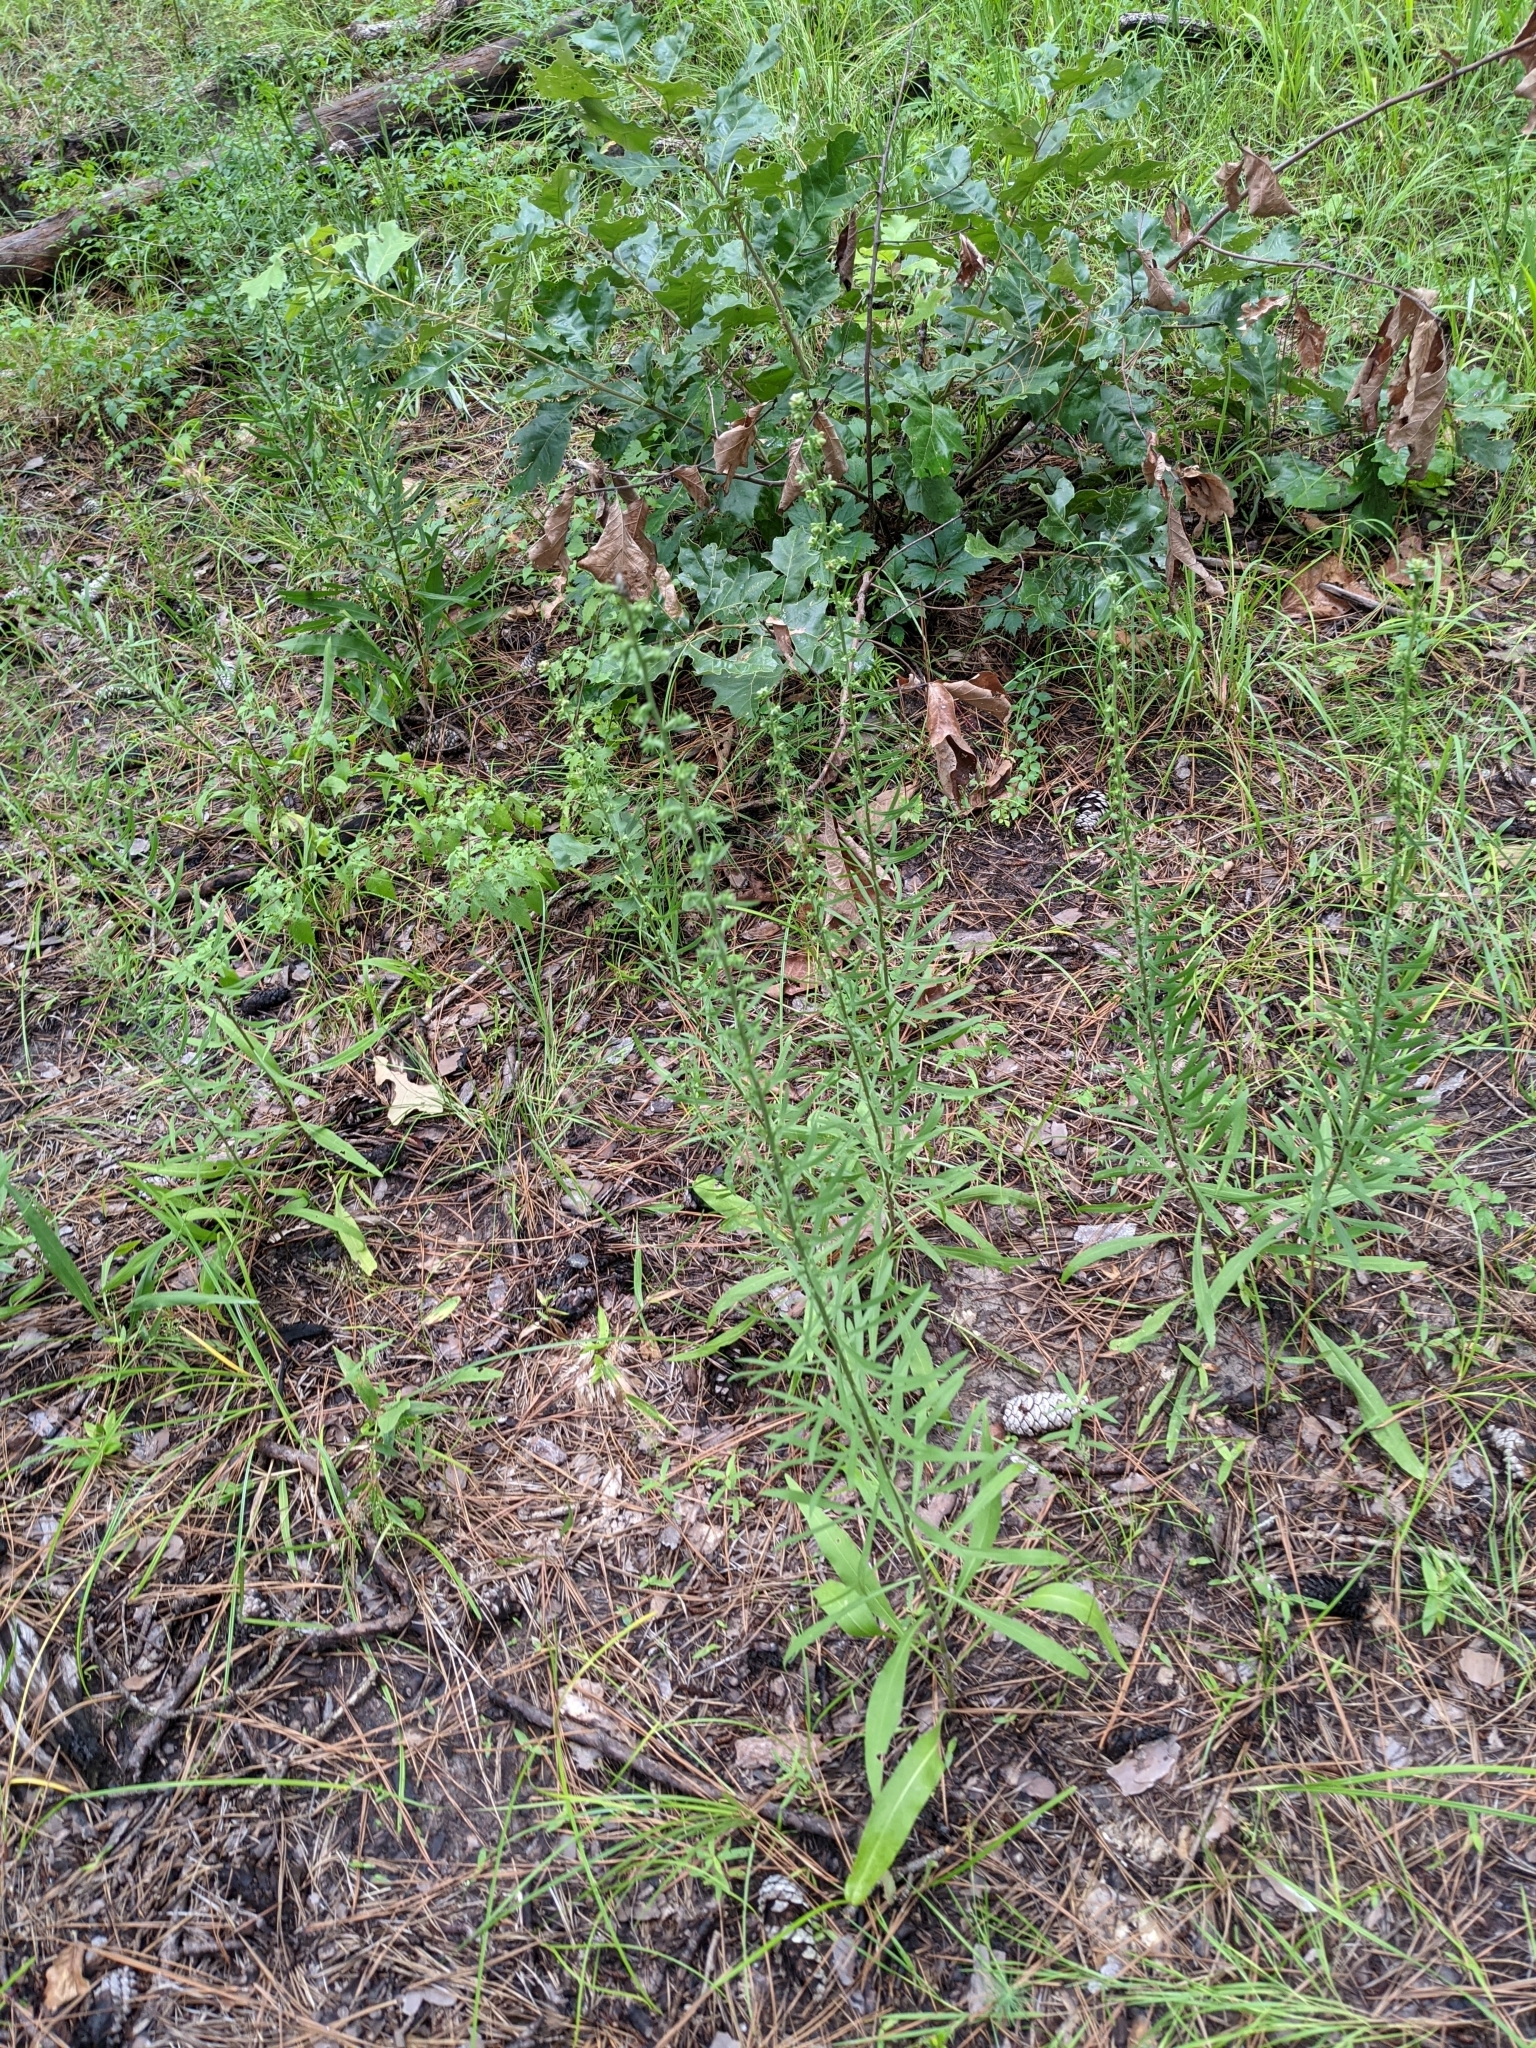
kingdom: Plantae
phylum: Tracheophyta
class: Magnoliopsida
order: Asterales
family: Asteraceae
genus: Liatris
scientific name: Liatris aspera
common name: Lacerate blazing-star
